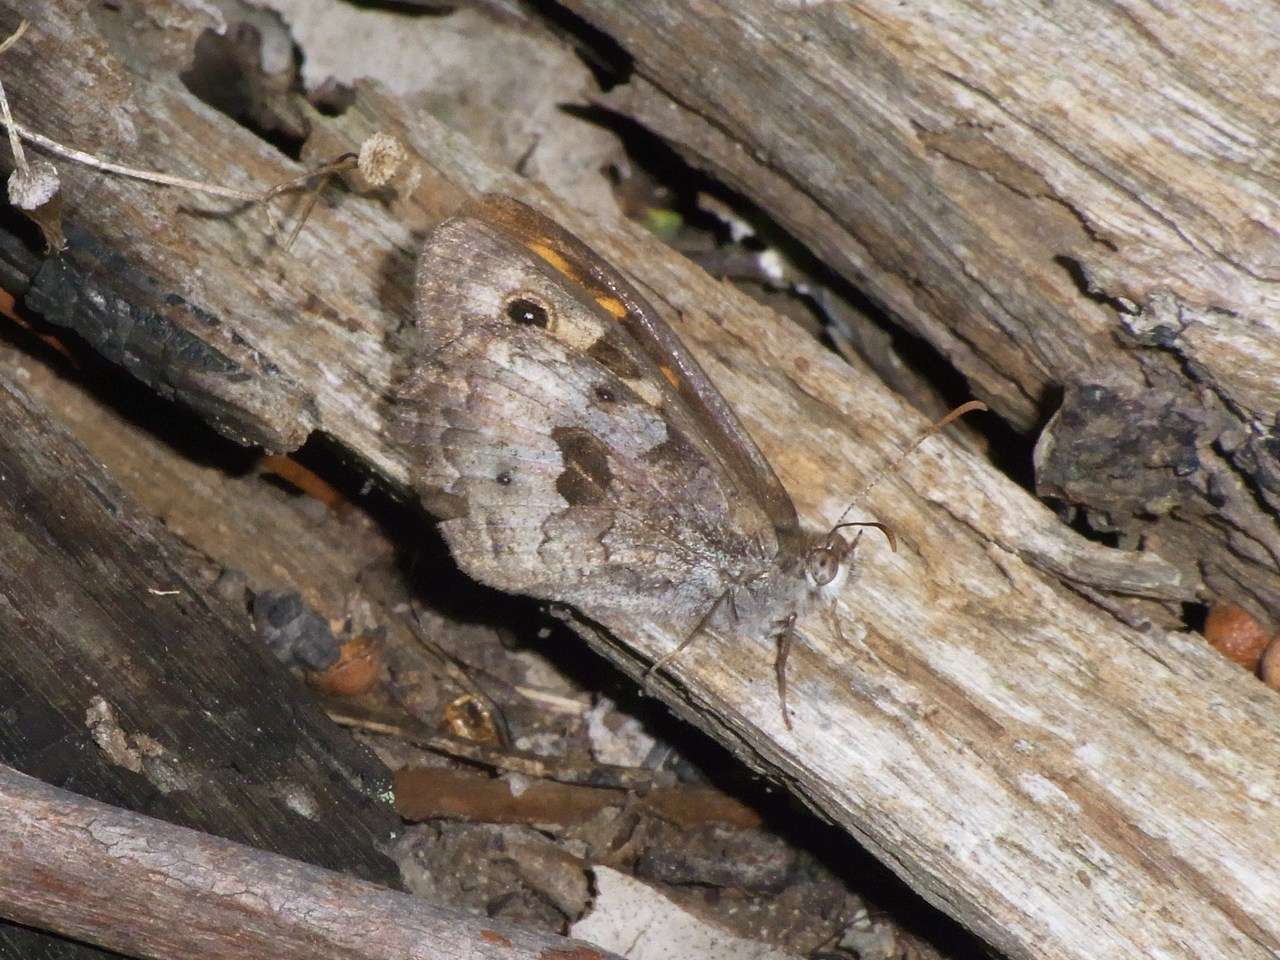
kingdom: Animalia
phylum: Arthropoda
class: Insecta
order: Lepidoptera
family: Nymphalidae
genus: Geitoneura
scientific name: Geitoneura klugii
